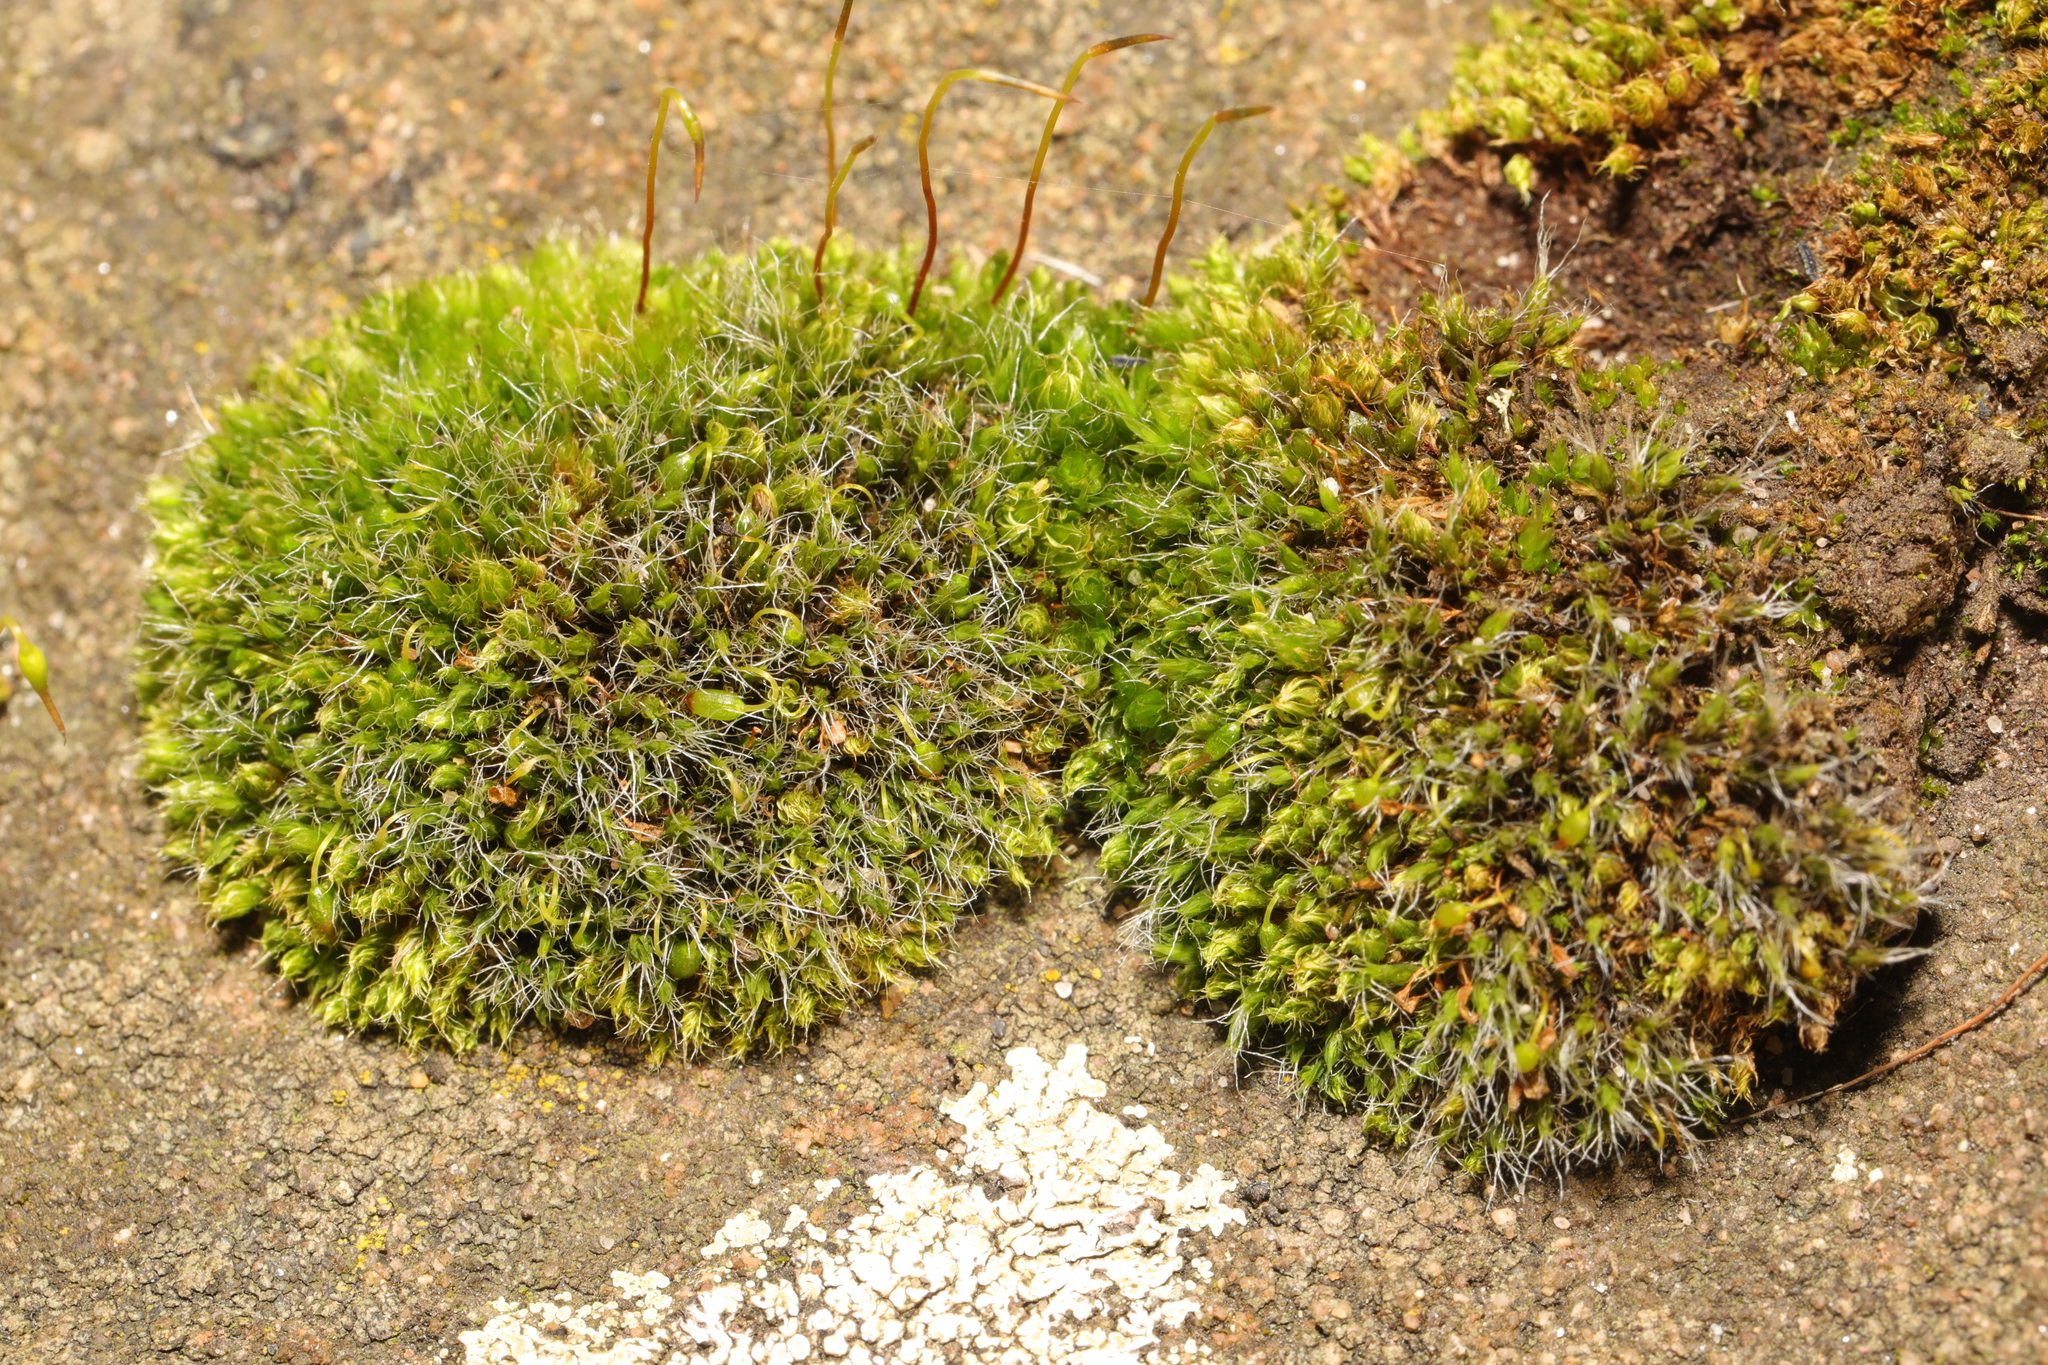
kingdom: Plantae
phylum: Bryophyta
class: Bryopsida
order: Grimmiales
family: Grimmiaceae
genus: Grimmia
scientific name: Grimmia pulvinata
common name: Grey-cushioned grimmia
